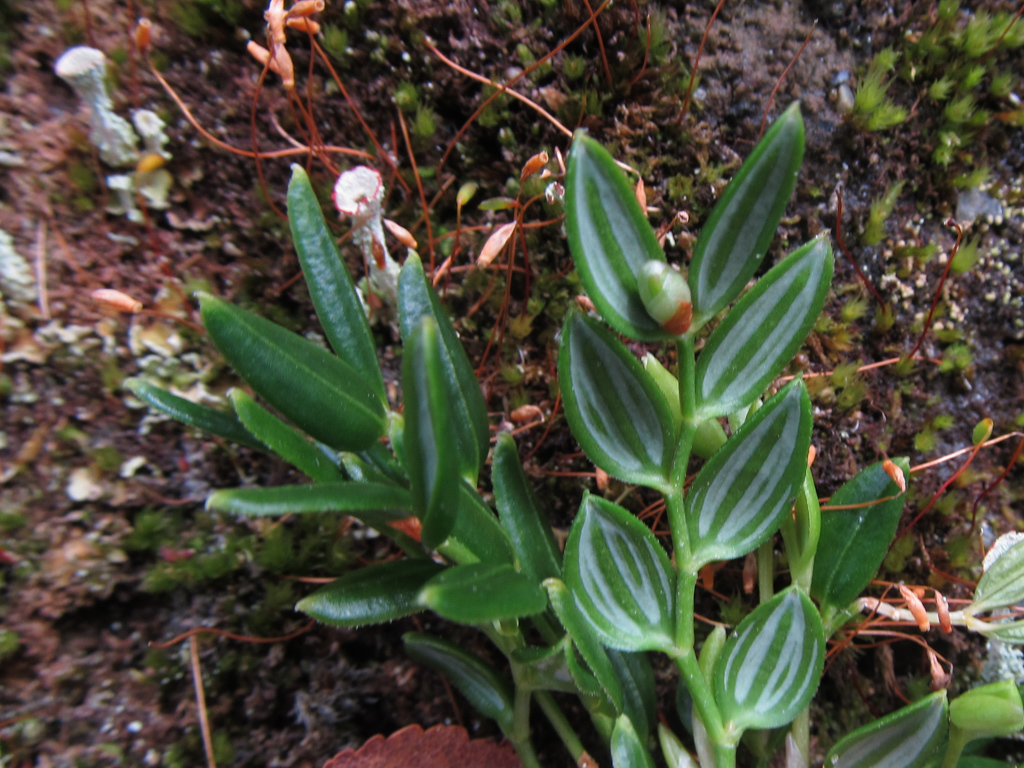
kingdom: Plantae
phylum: Tracheophyta
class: Liliopsida
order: Liliales
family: Alstroemeriaceae
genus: Luzuriaga
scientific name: Luzuriaga marginata
